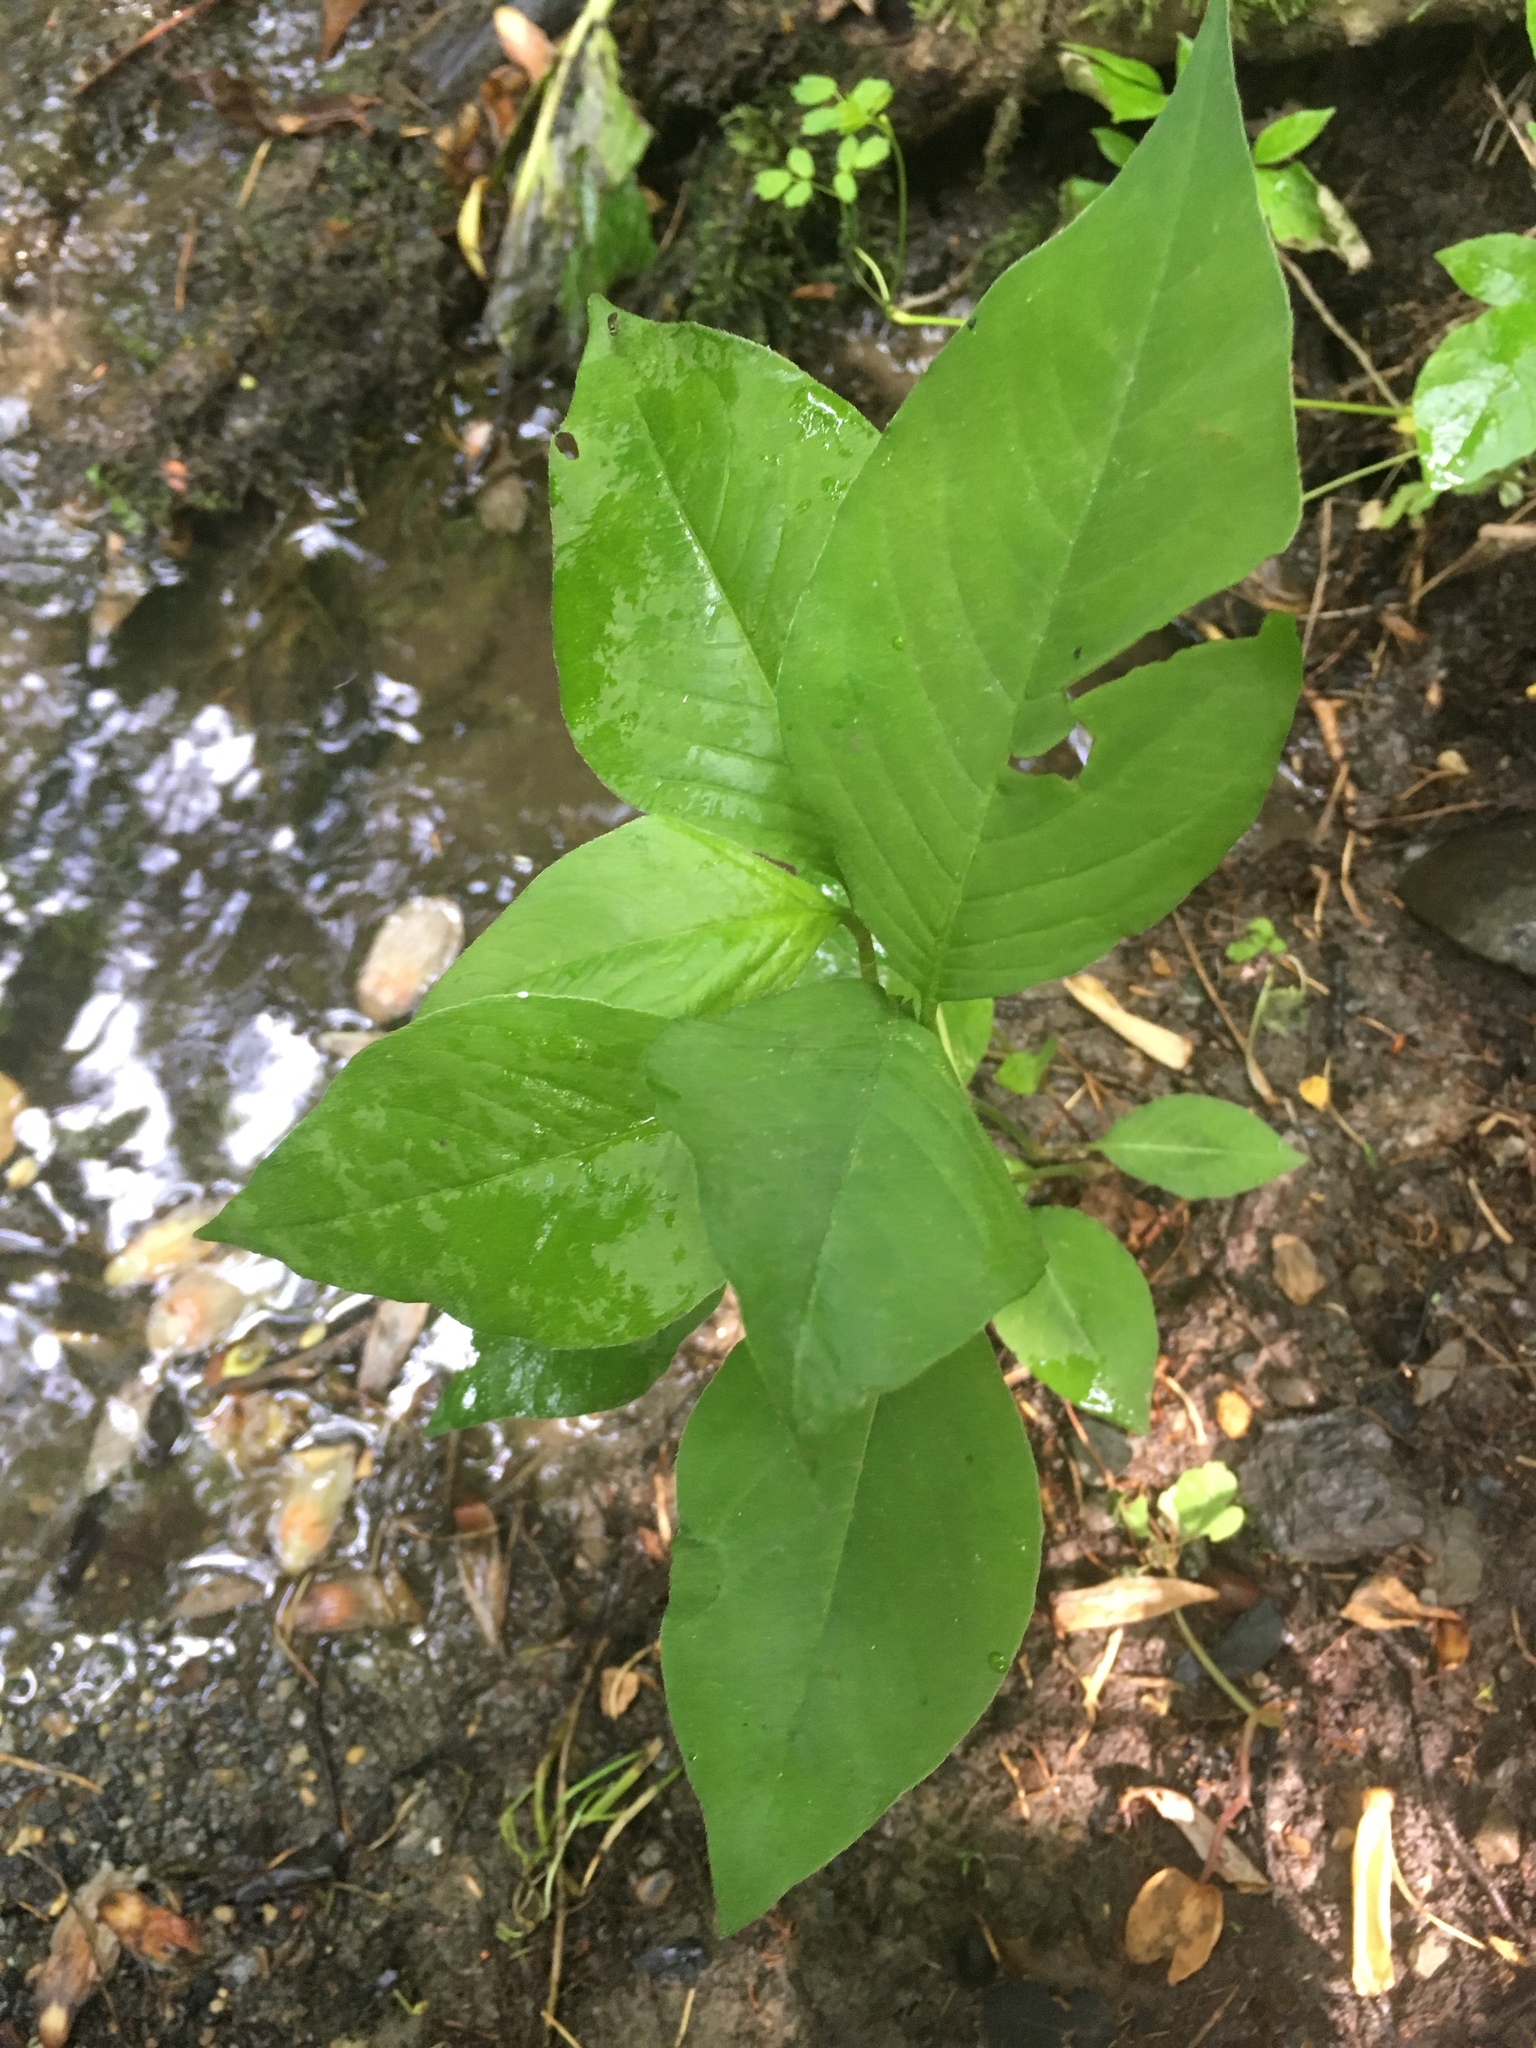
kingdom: Plantae
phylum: Tracheophyta
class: Magnoliopsida
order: Caryophyllales
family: Polygonaceae
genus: Persicaria
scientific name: Persicaria virginiana
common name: Jumpseed
